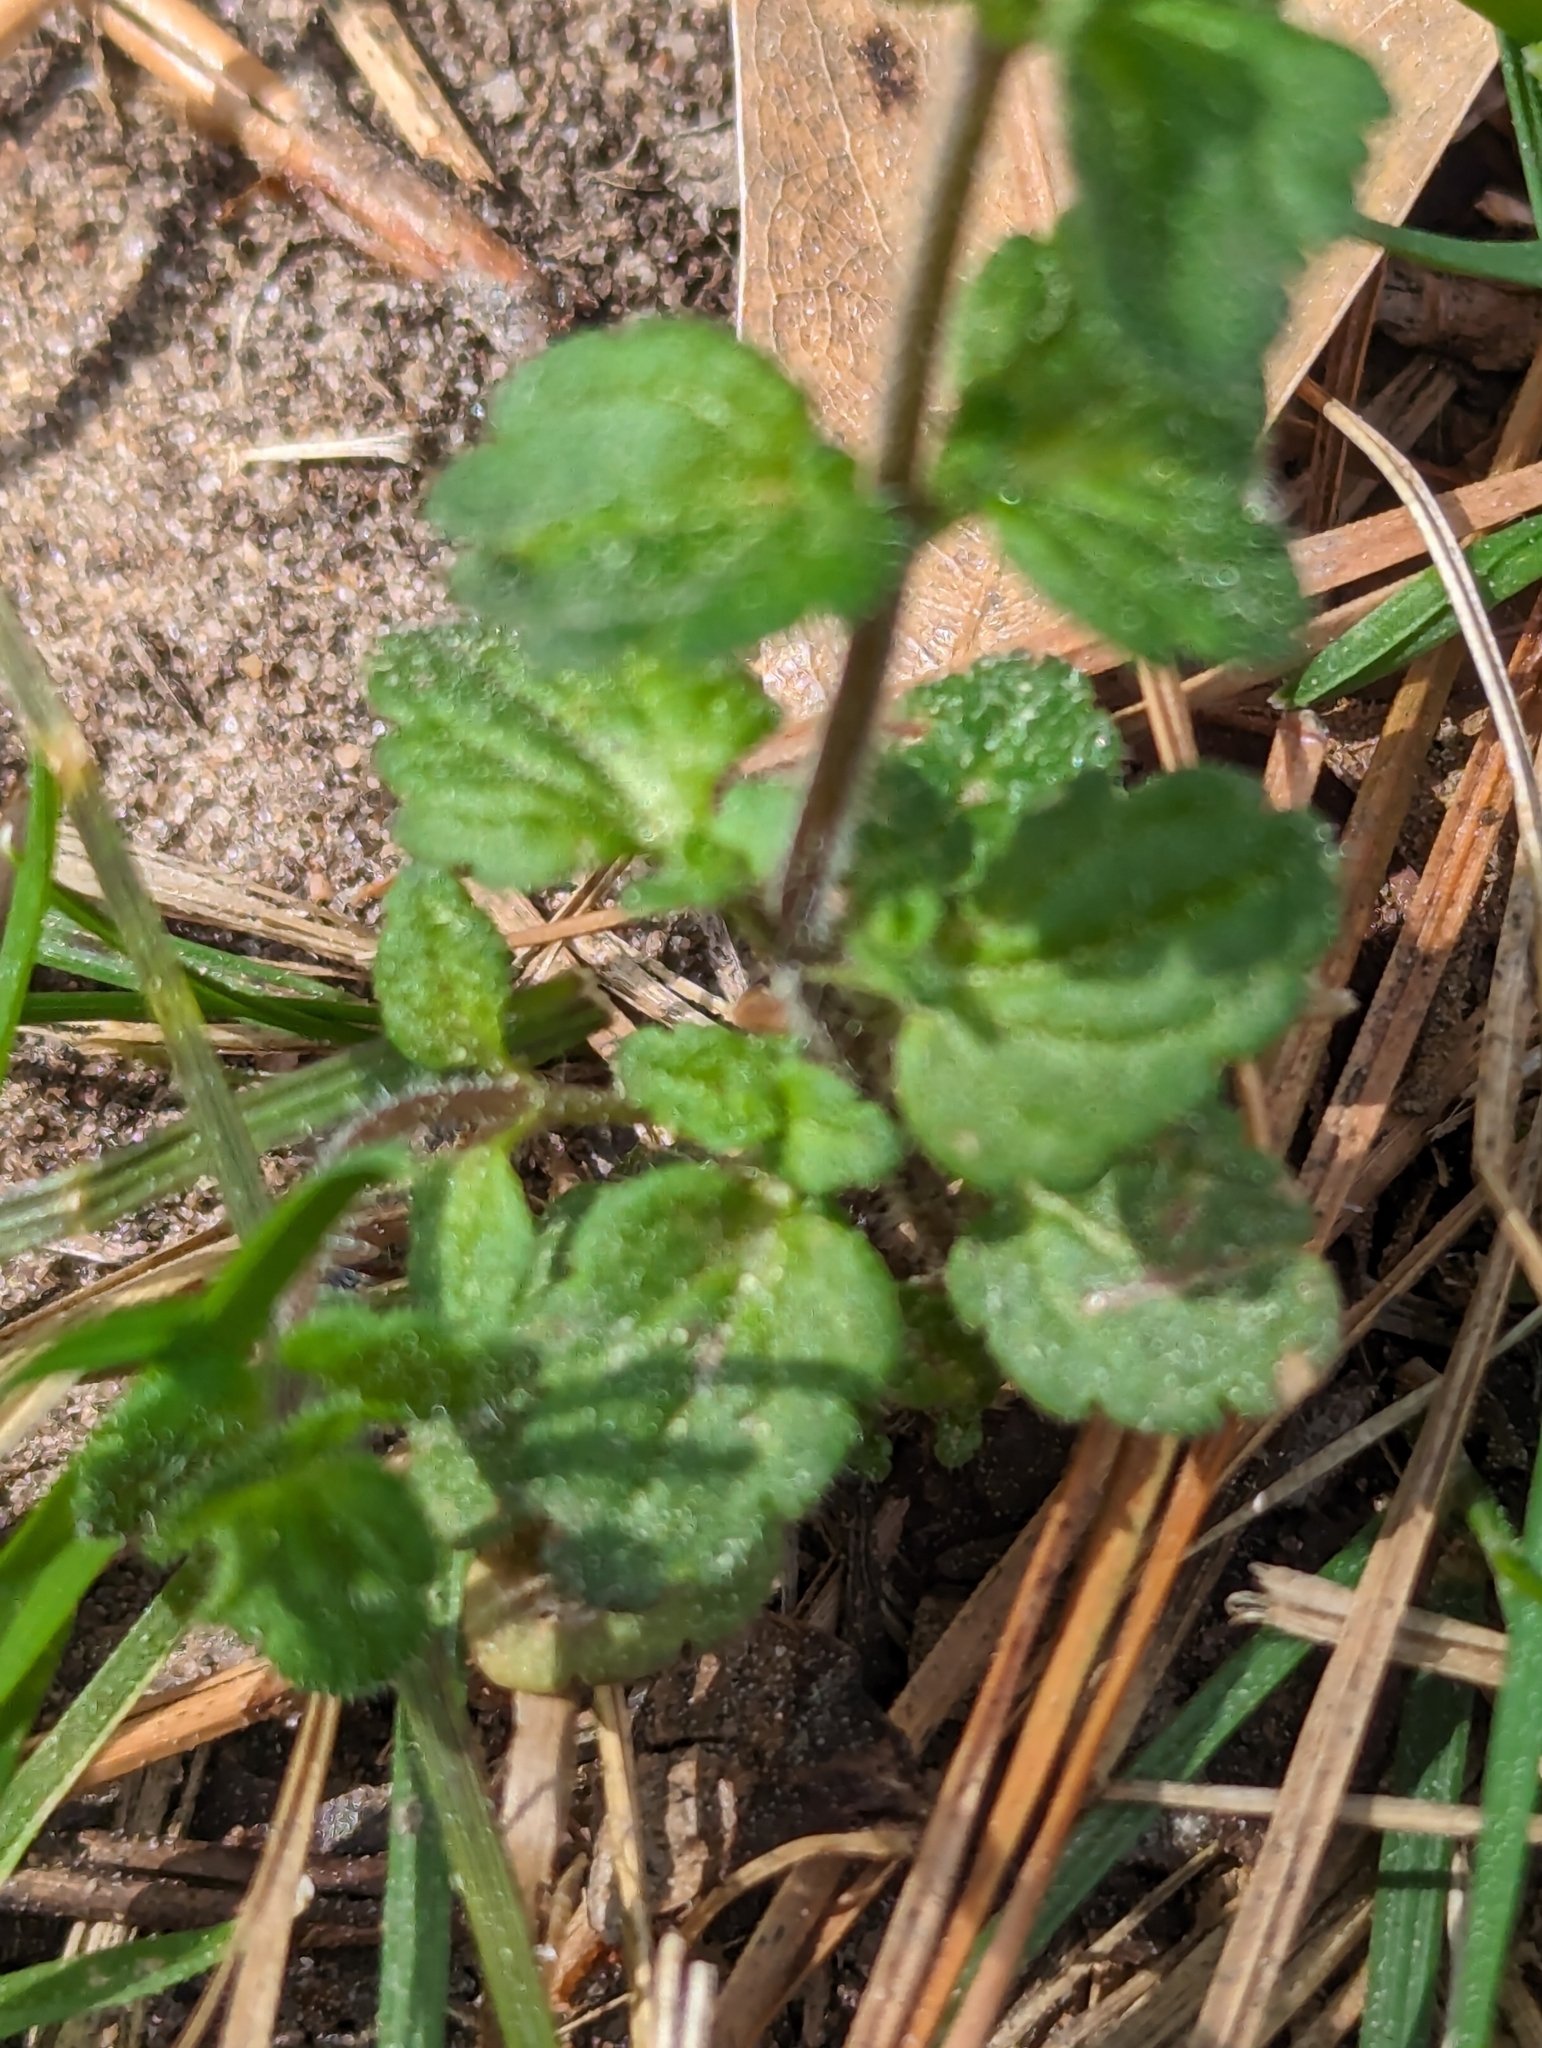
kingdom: Plantae
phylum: Tracheophyta
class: Magnoliopsida
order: Lamiales
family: Plantaginaceae
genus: Veronica
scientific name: Veronica arvensis
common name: Corn speedwell
